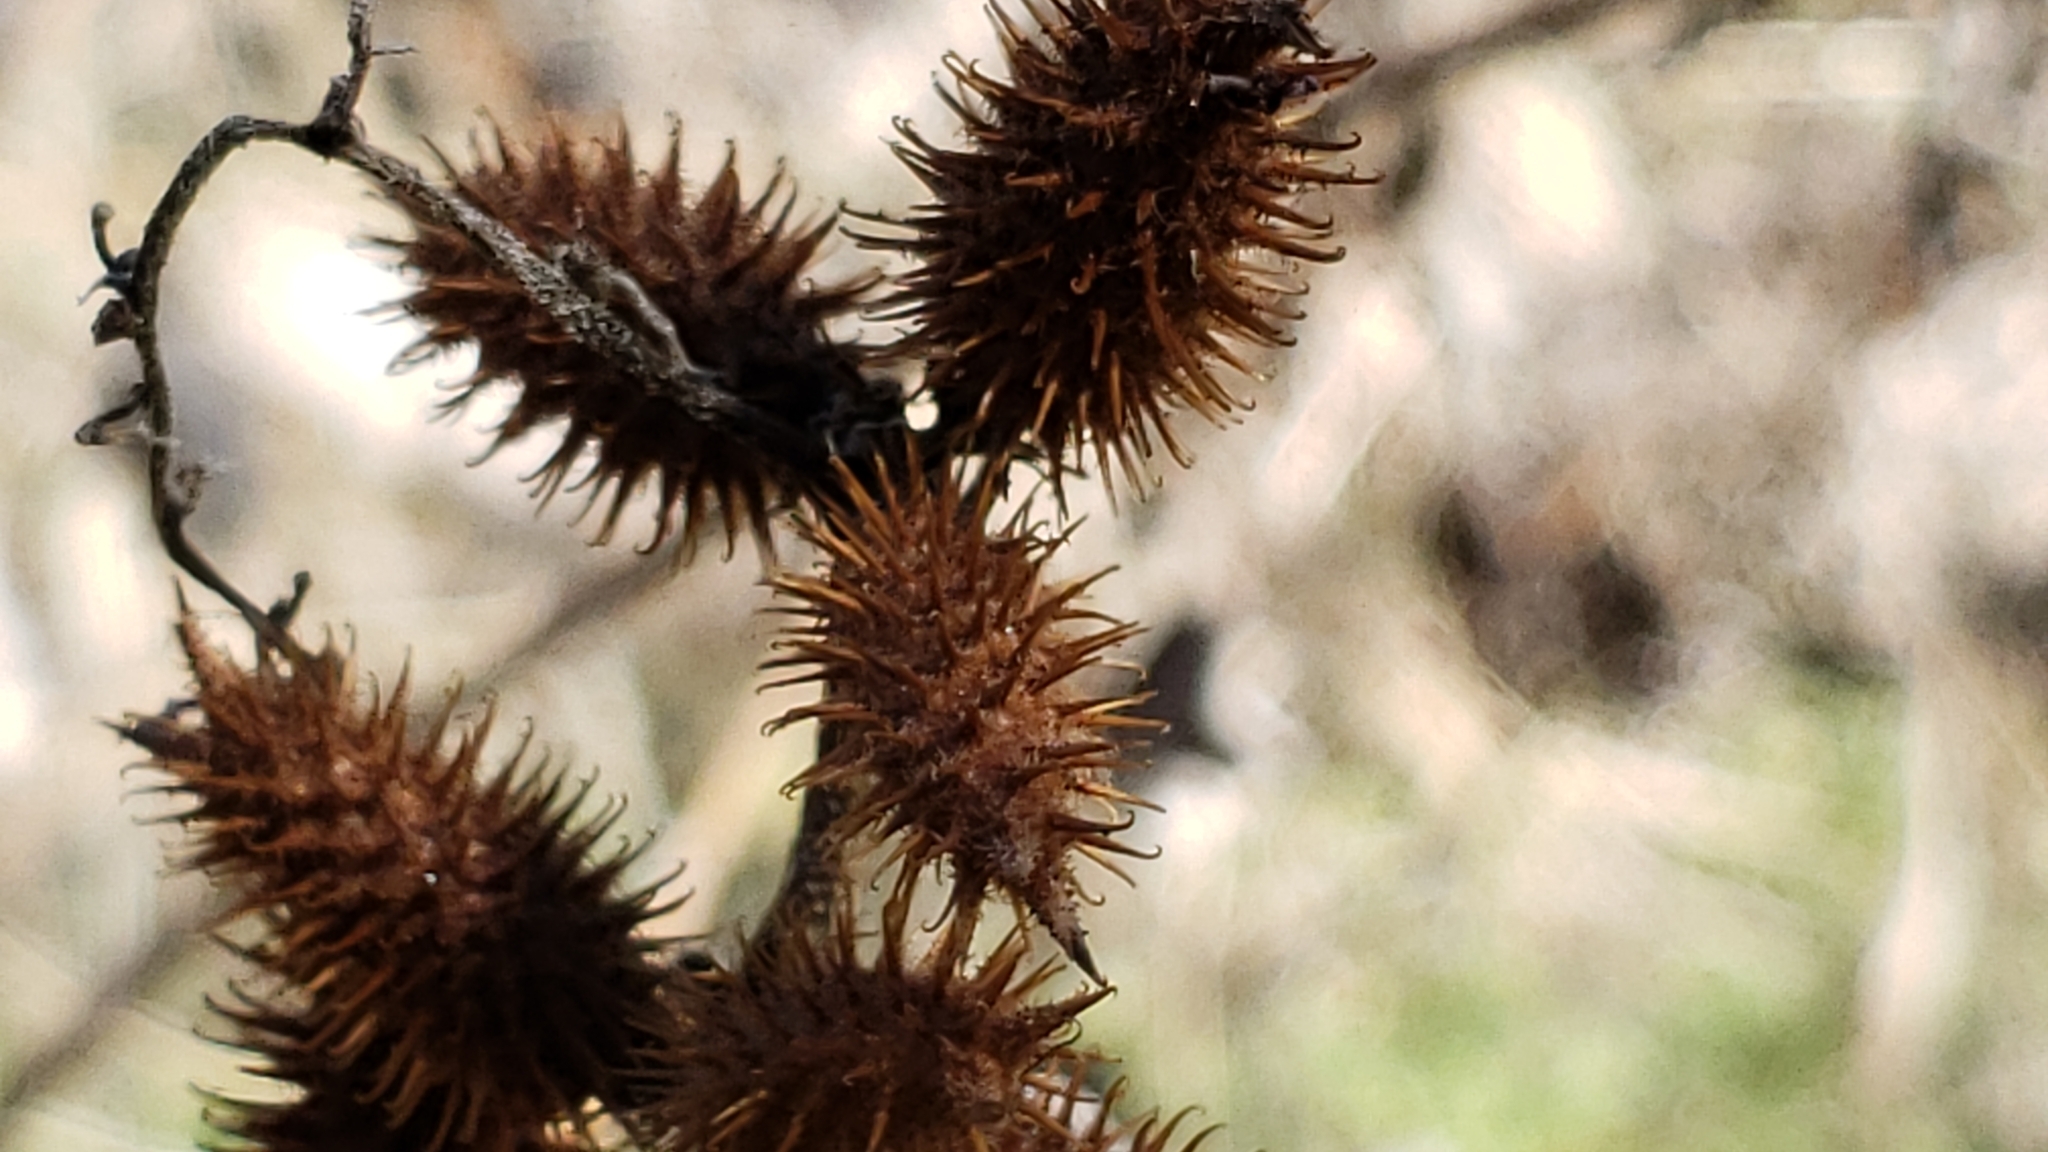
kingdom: Plantae
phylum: Tracheophyta
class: Magnoliopsida
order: Asterales
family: Asteraceae
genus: Xanthium
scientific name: Xanthium strumarium
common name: Rough cocklebur
